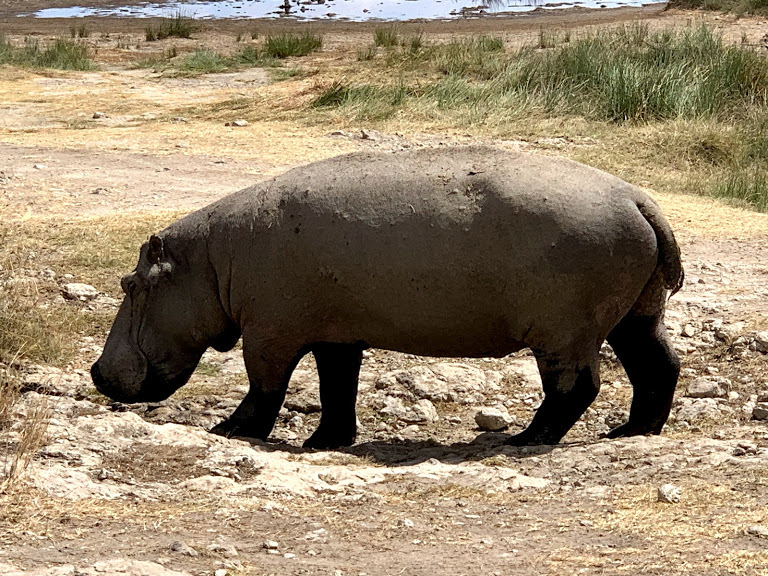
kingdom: Animalia
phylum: Chordata
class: Mammalia
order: Artiodactyla
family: Hippopotamidae
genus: Hippopotamus
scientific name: Hippopotamus amphibius
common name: Common hippopotamus
